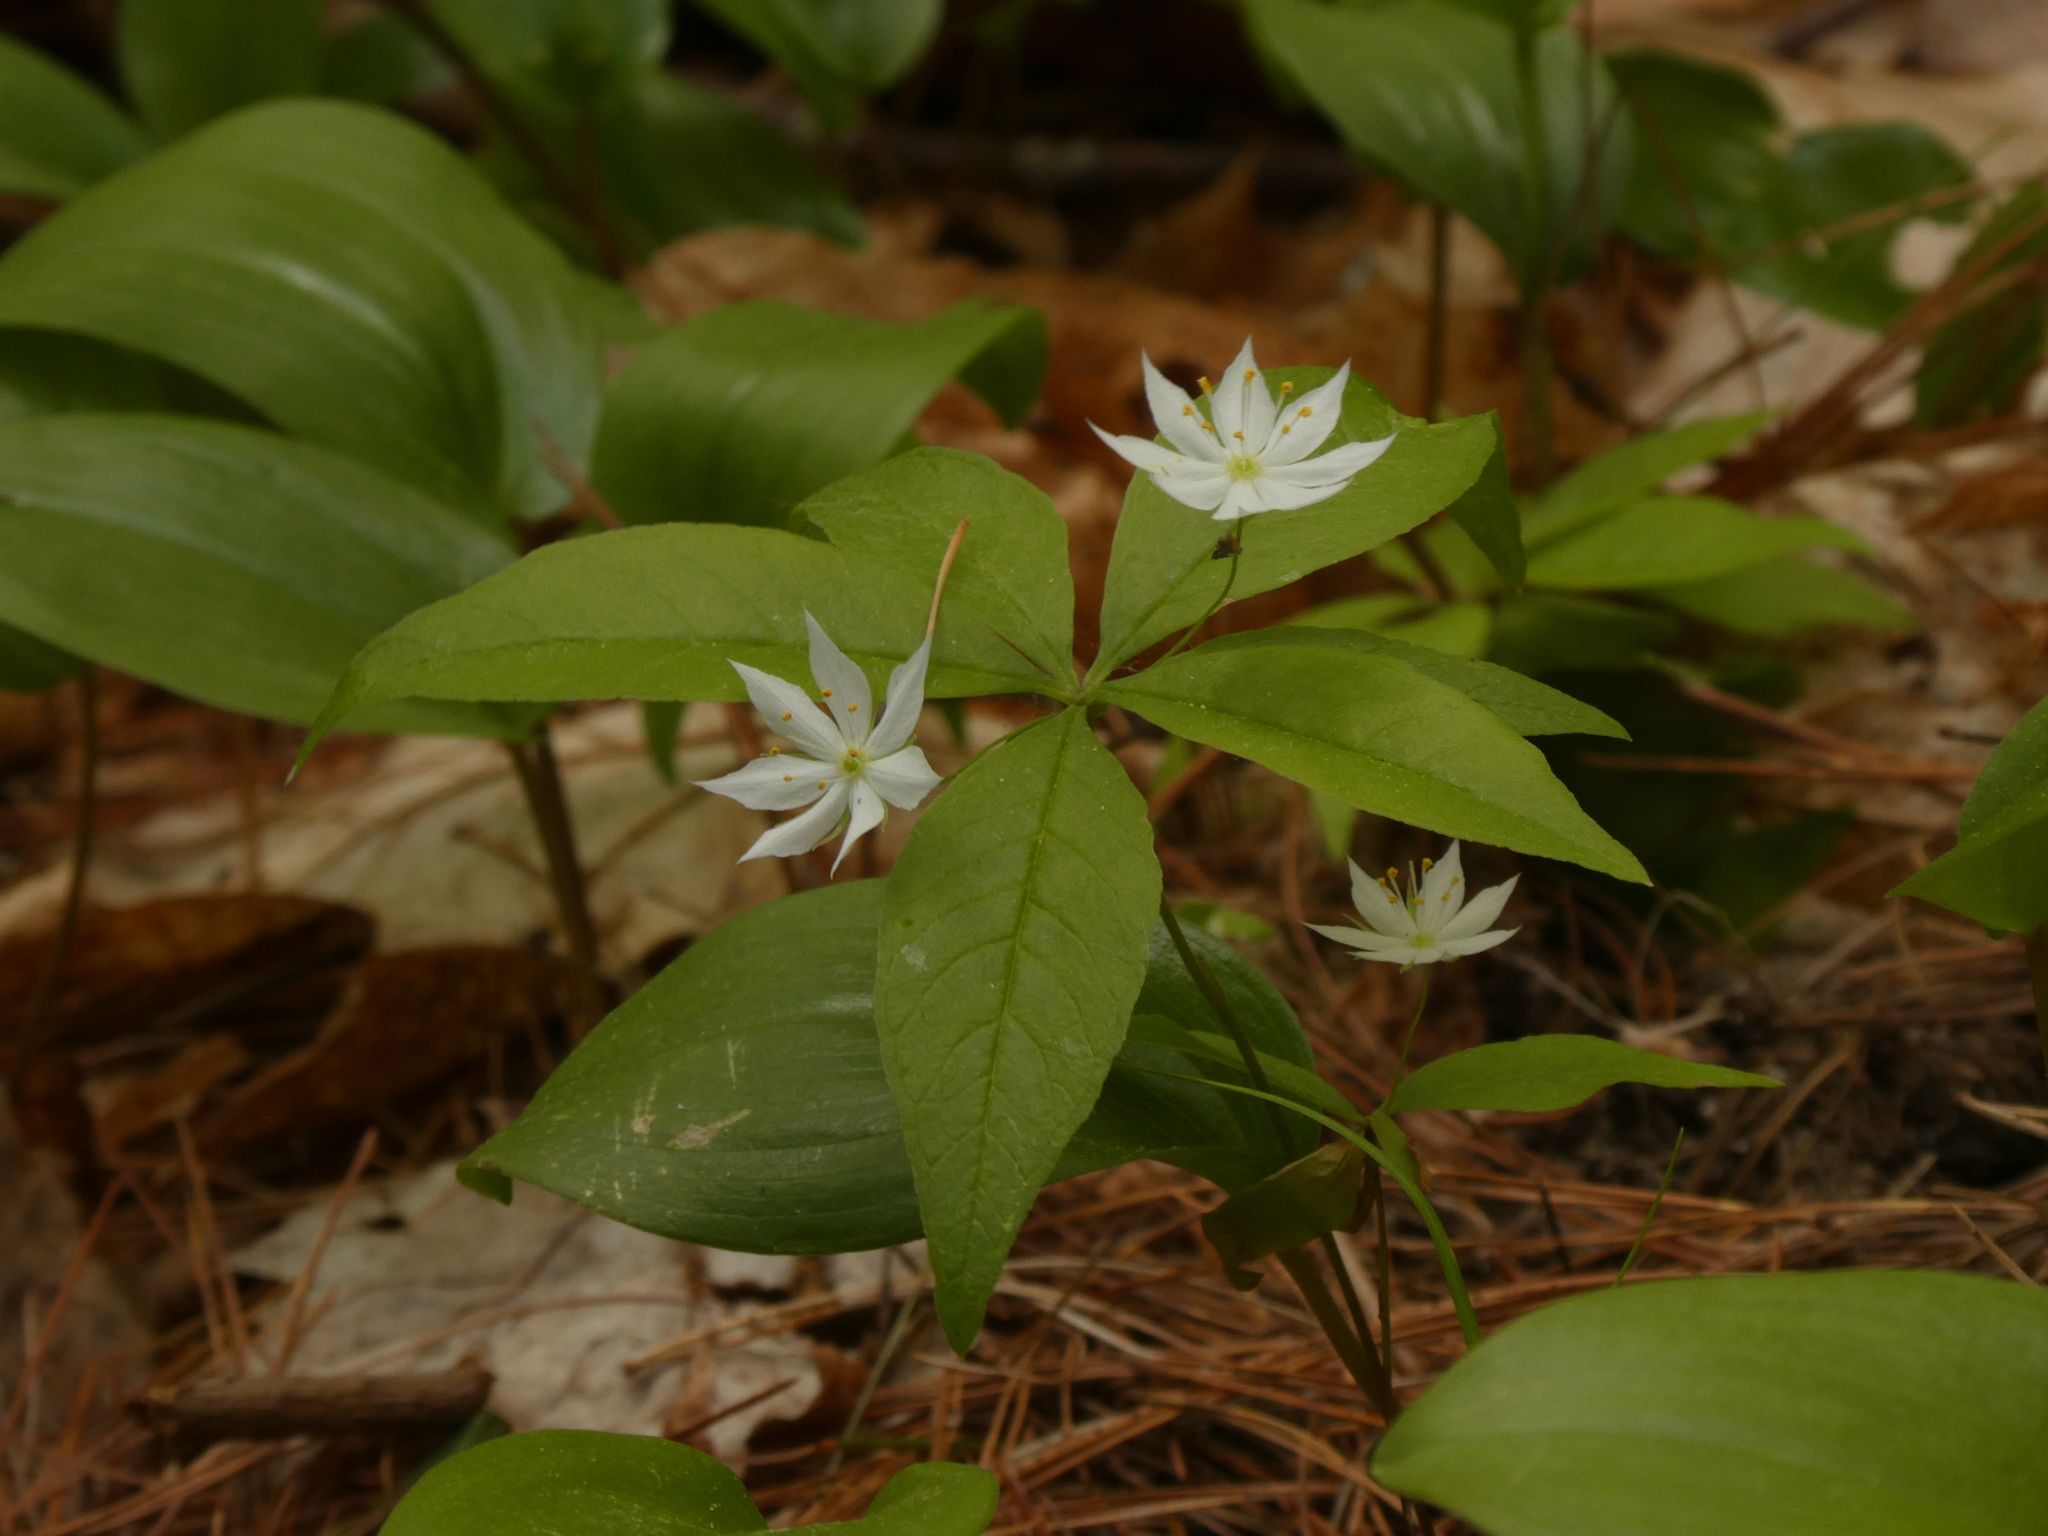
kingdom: Plantae
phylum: Tracheophyta
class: Magnoliopsida
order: Ericales
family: Primulaceae
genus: Lysimachia
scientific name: Lysimachia borealis
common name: American starflower
